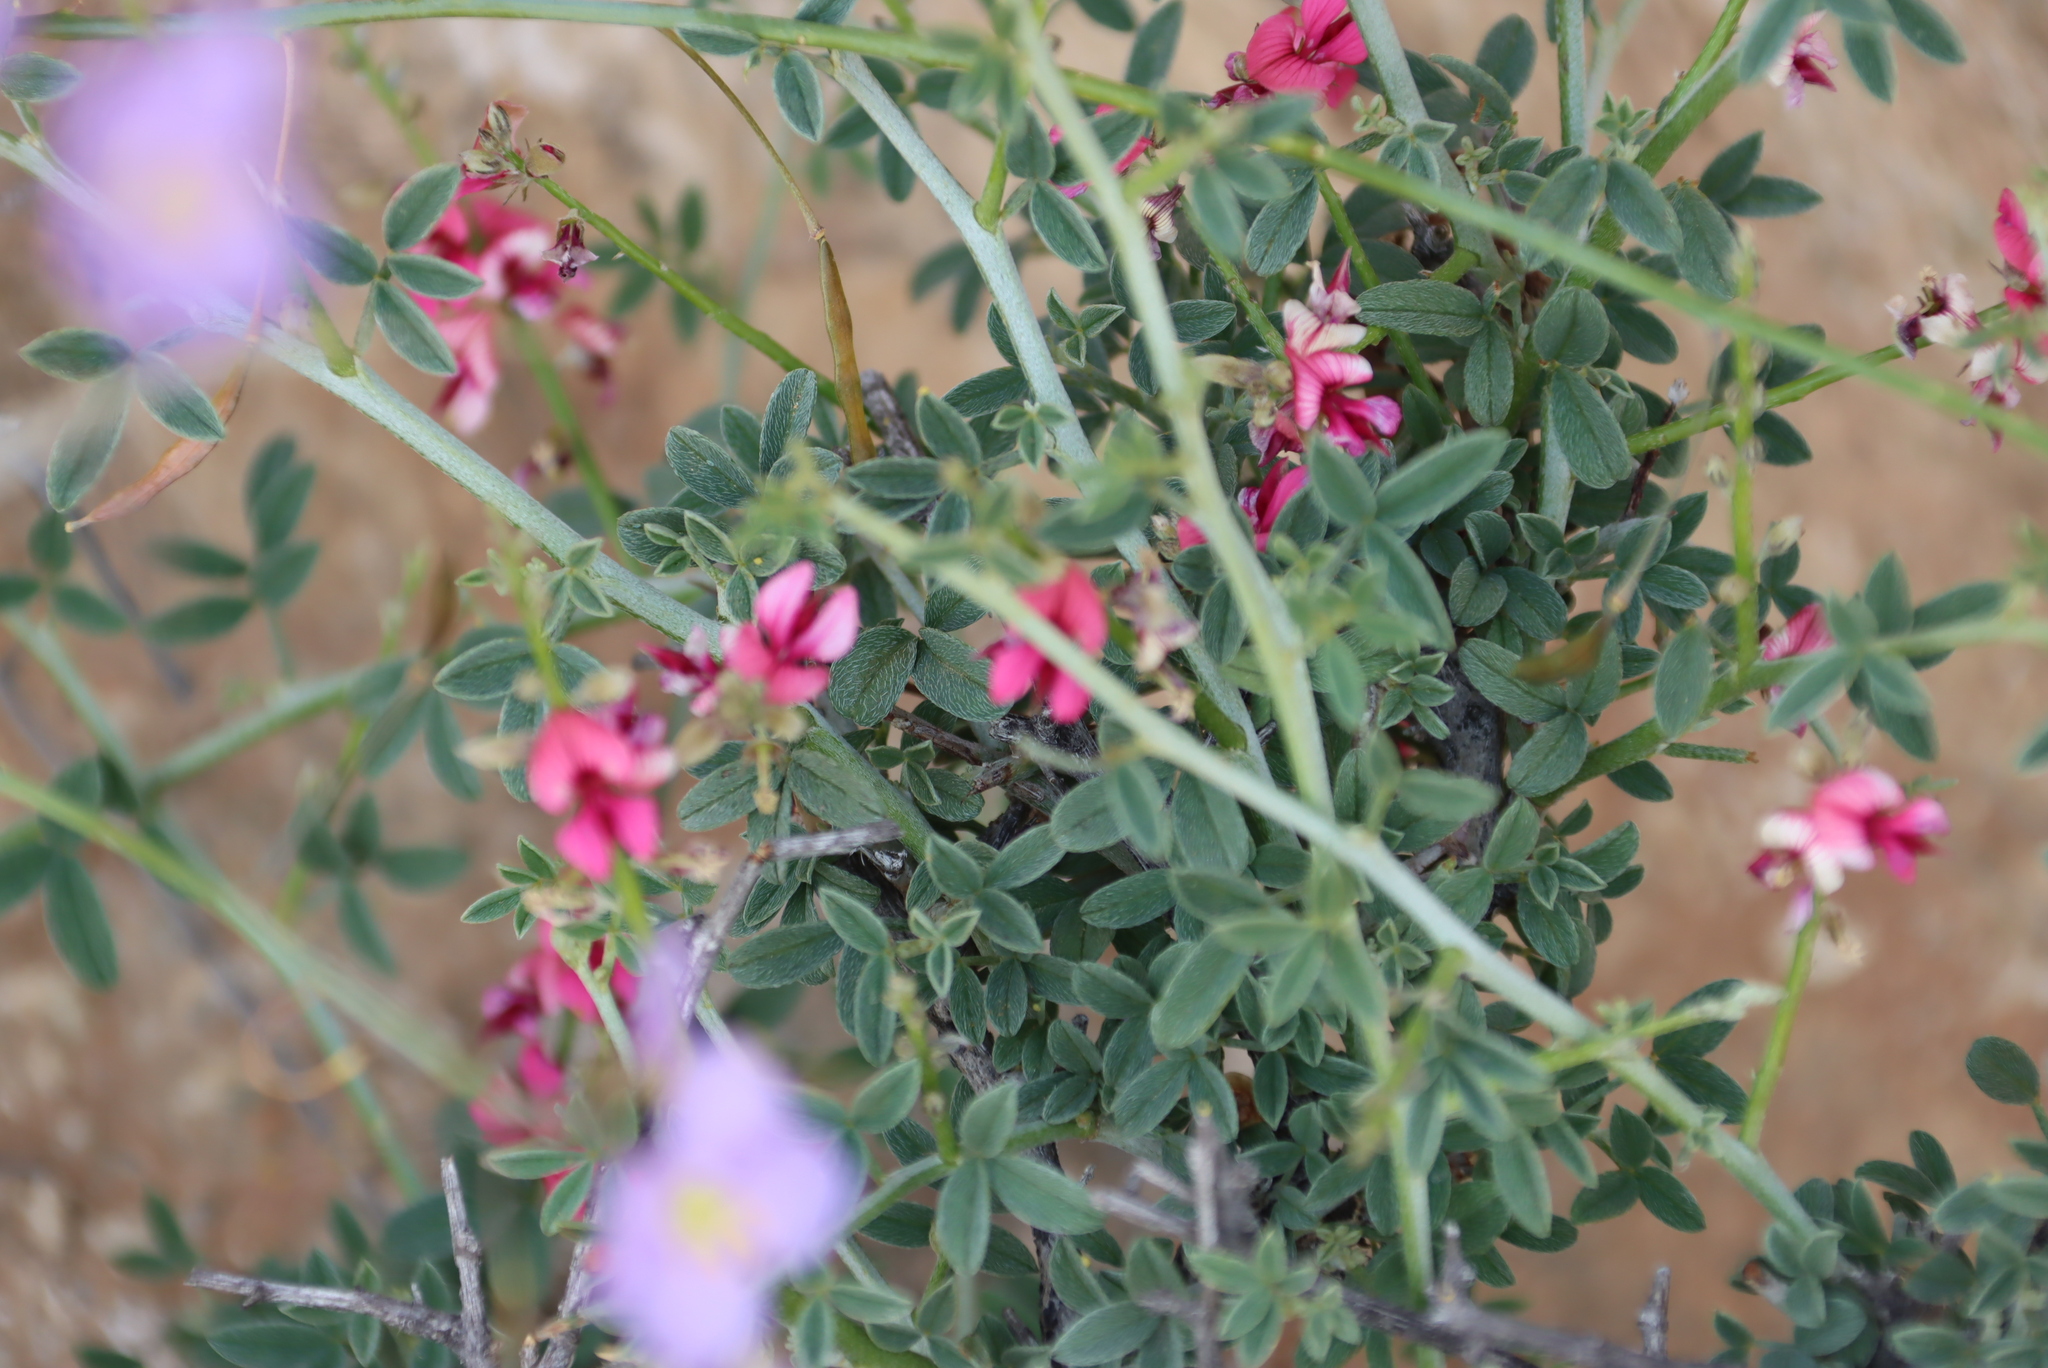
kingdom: Plantae
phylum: Tracheophyta
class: Magnoliopsida
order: Fabales
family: Fabaceae
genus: Indigofera
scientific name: Indigofera pungens
